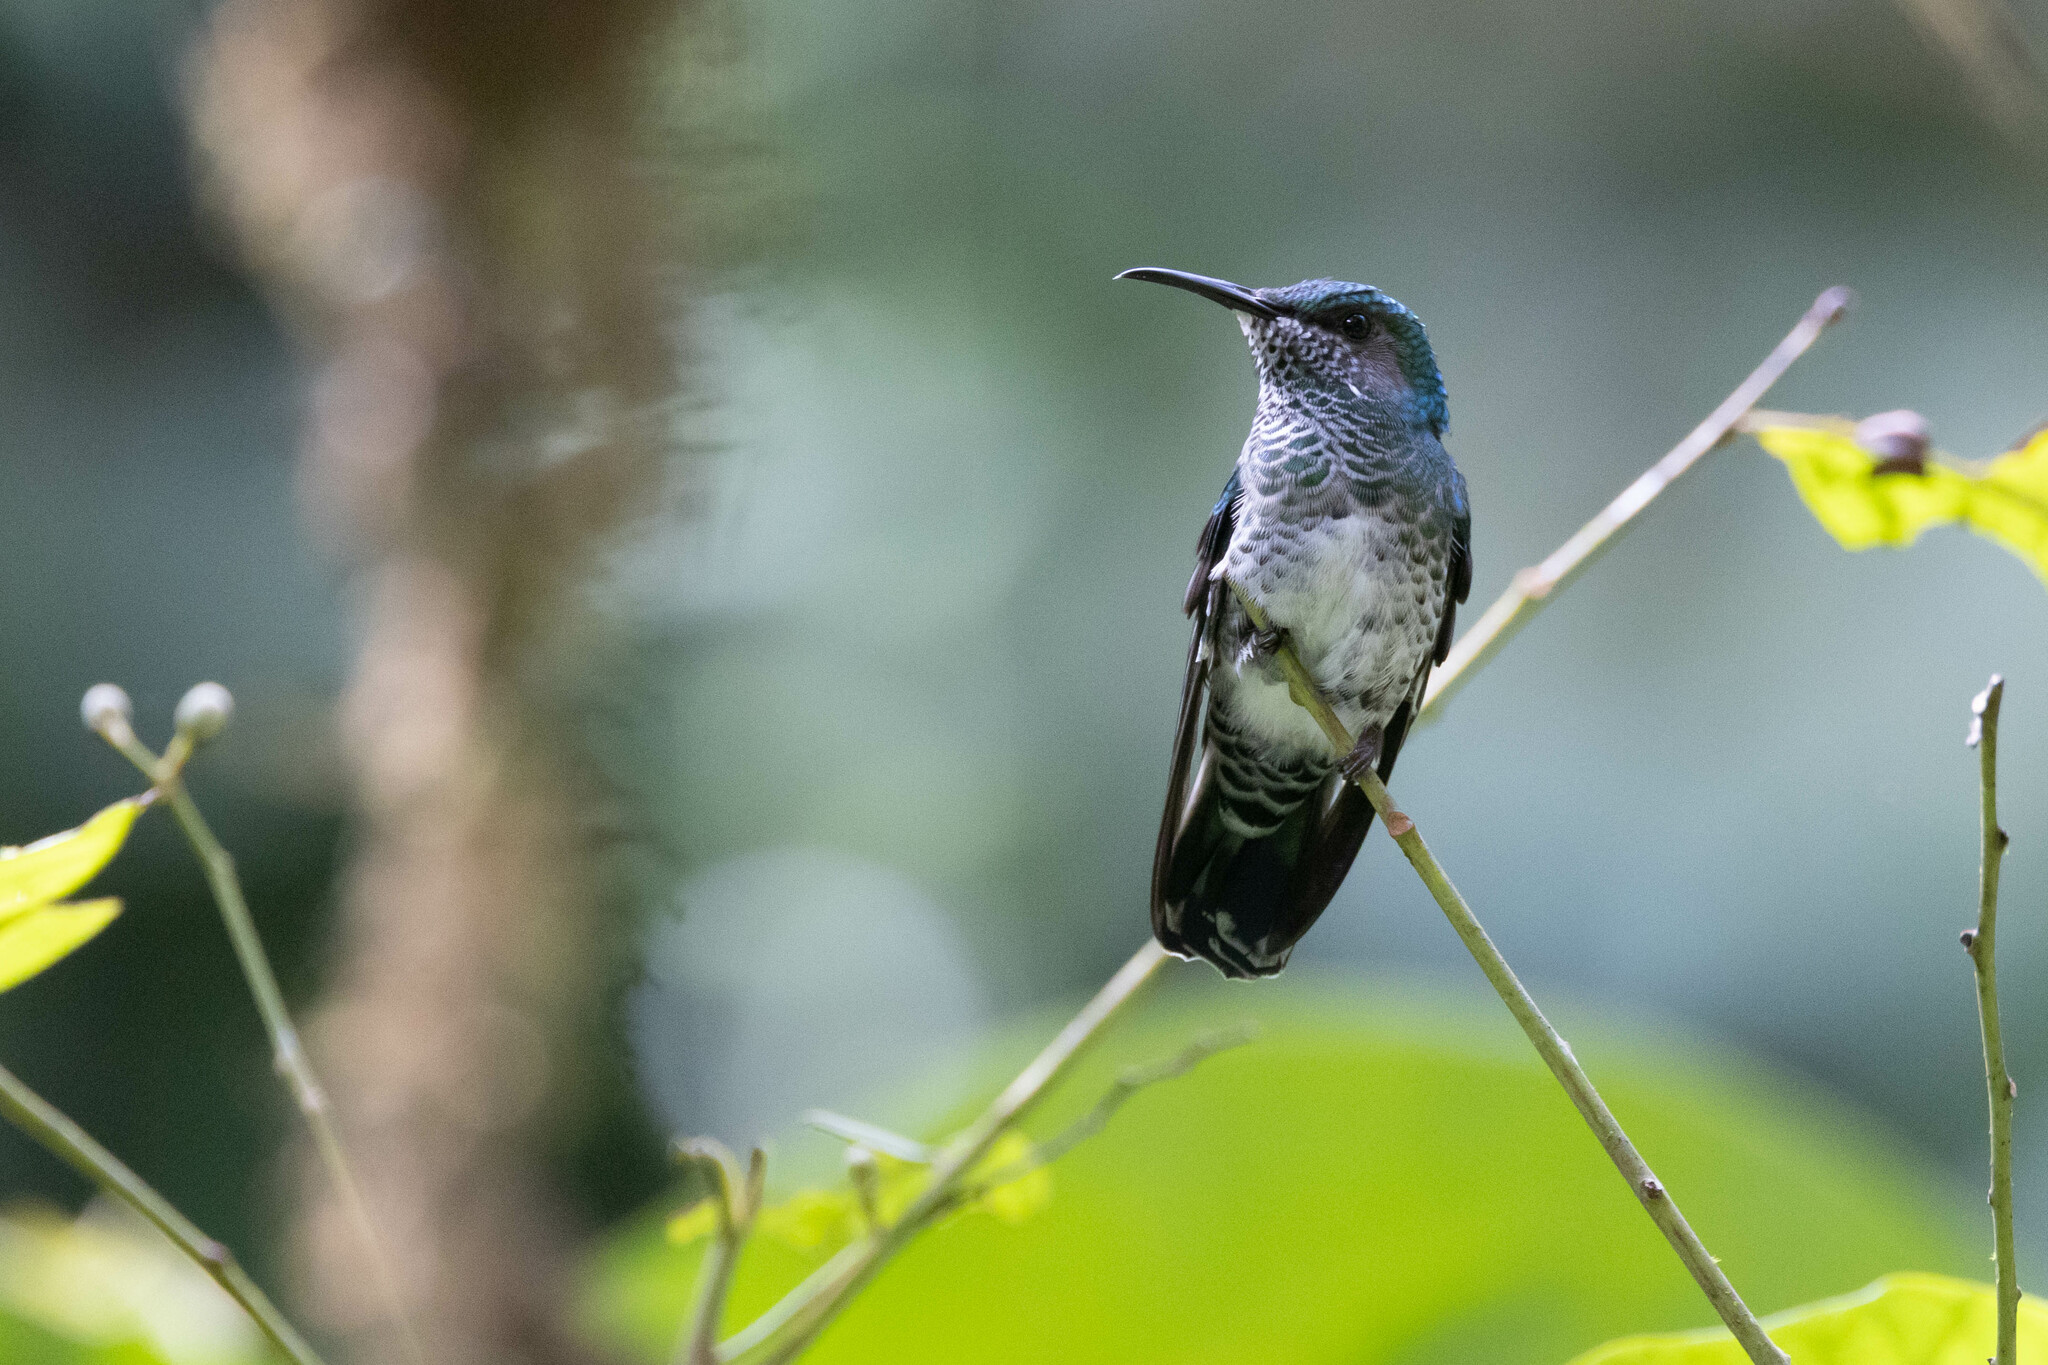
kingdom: Animalia
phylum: Chordata
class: Aves
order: Apodiformes
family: Trochilidae
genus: Florisuga
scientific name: Florisuga mellivora
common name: White-necked jacobin
